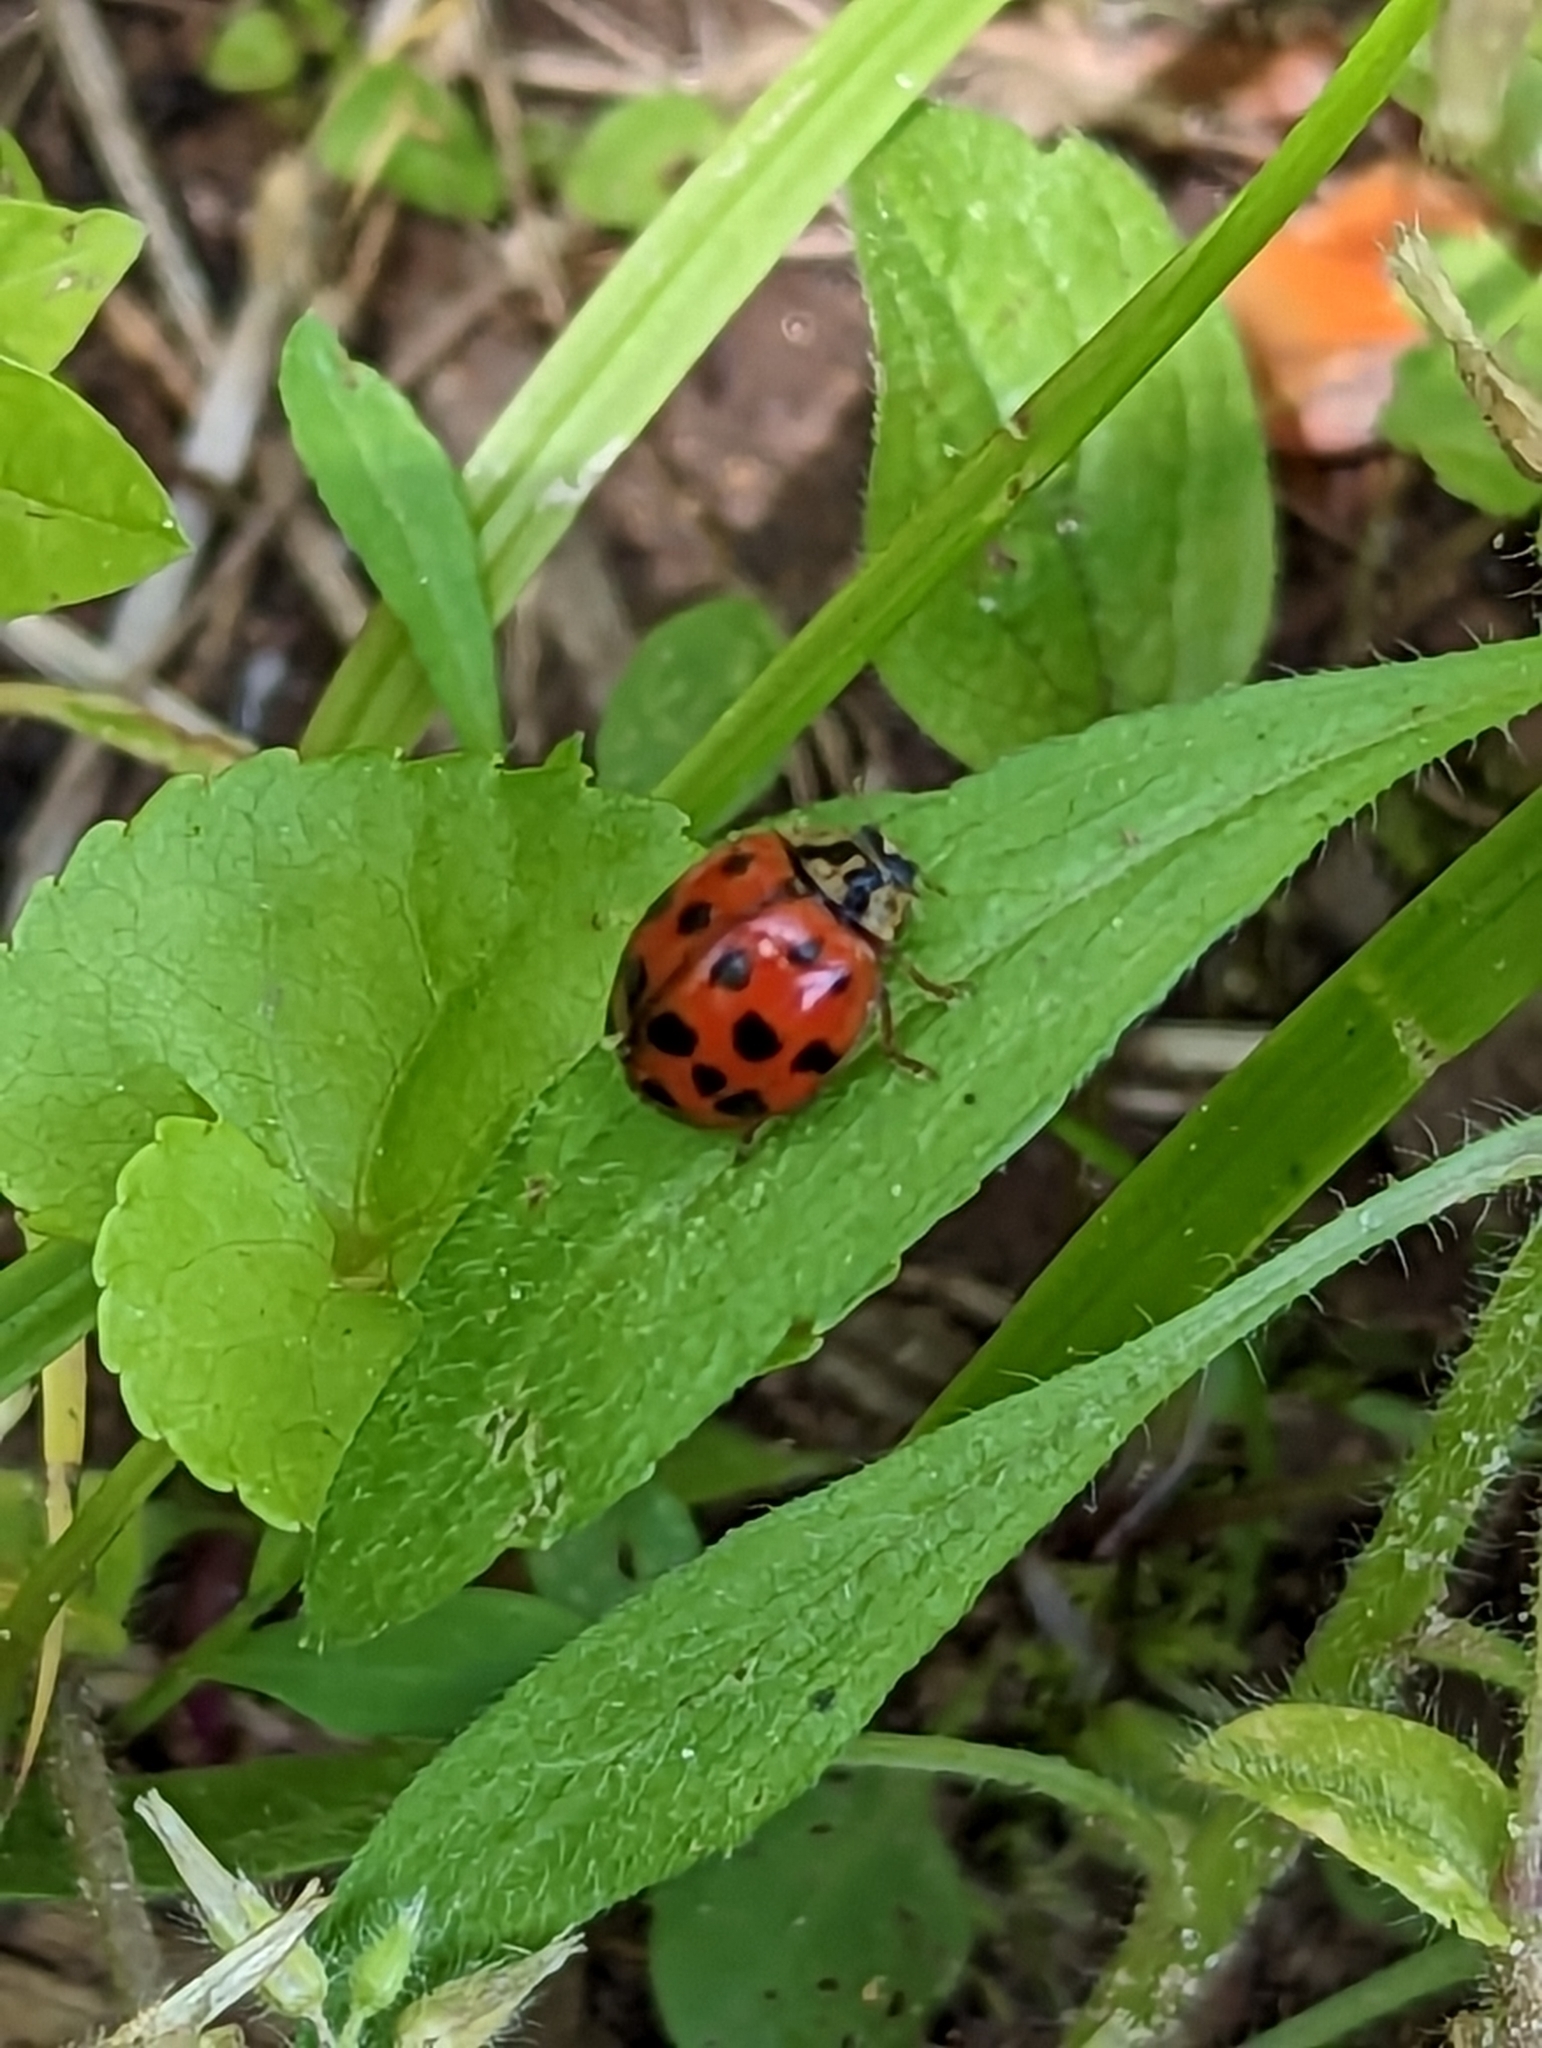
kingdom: Animalia
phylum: Arthropoda
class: Insecta
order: Coleoptera
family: Coccinellidae
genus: Harmonia
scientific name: Harmonia axyridis
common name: Harlequin ladybird
